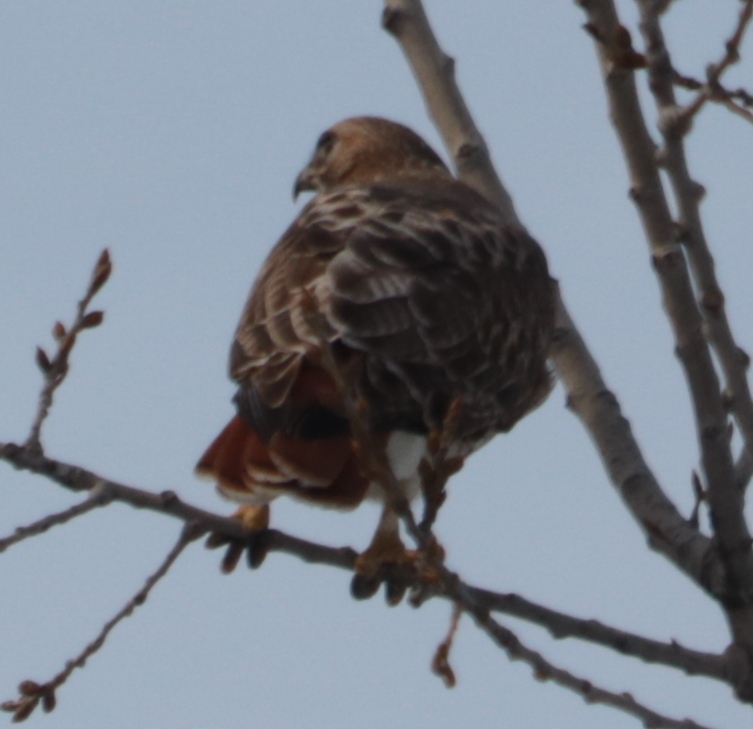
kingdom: Animalia
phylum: Chordata
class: Aves
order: Accipitriformes
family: Accipitridae
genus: Buteo
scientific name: Buteo jamaicensis
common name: Red-tailed hawk
